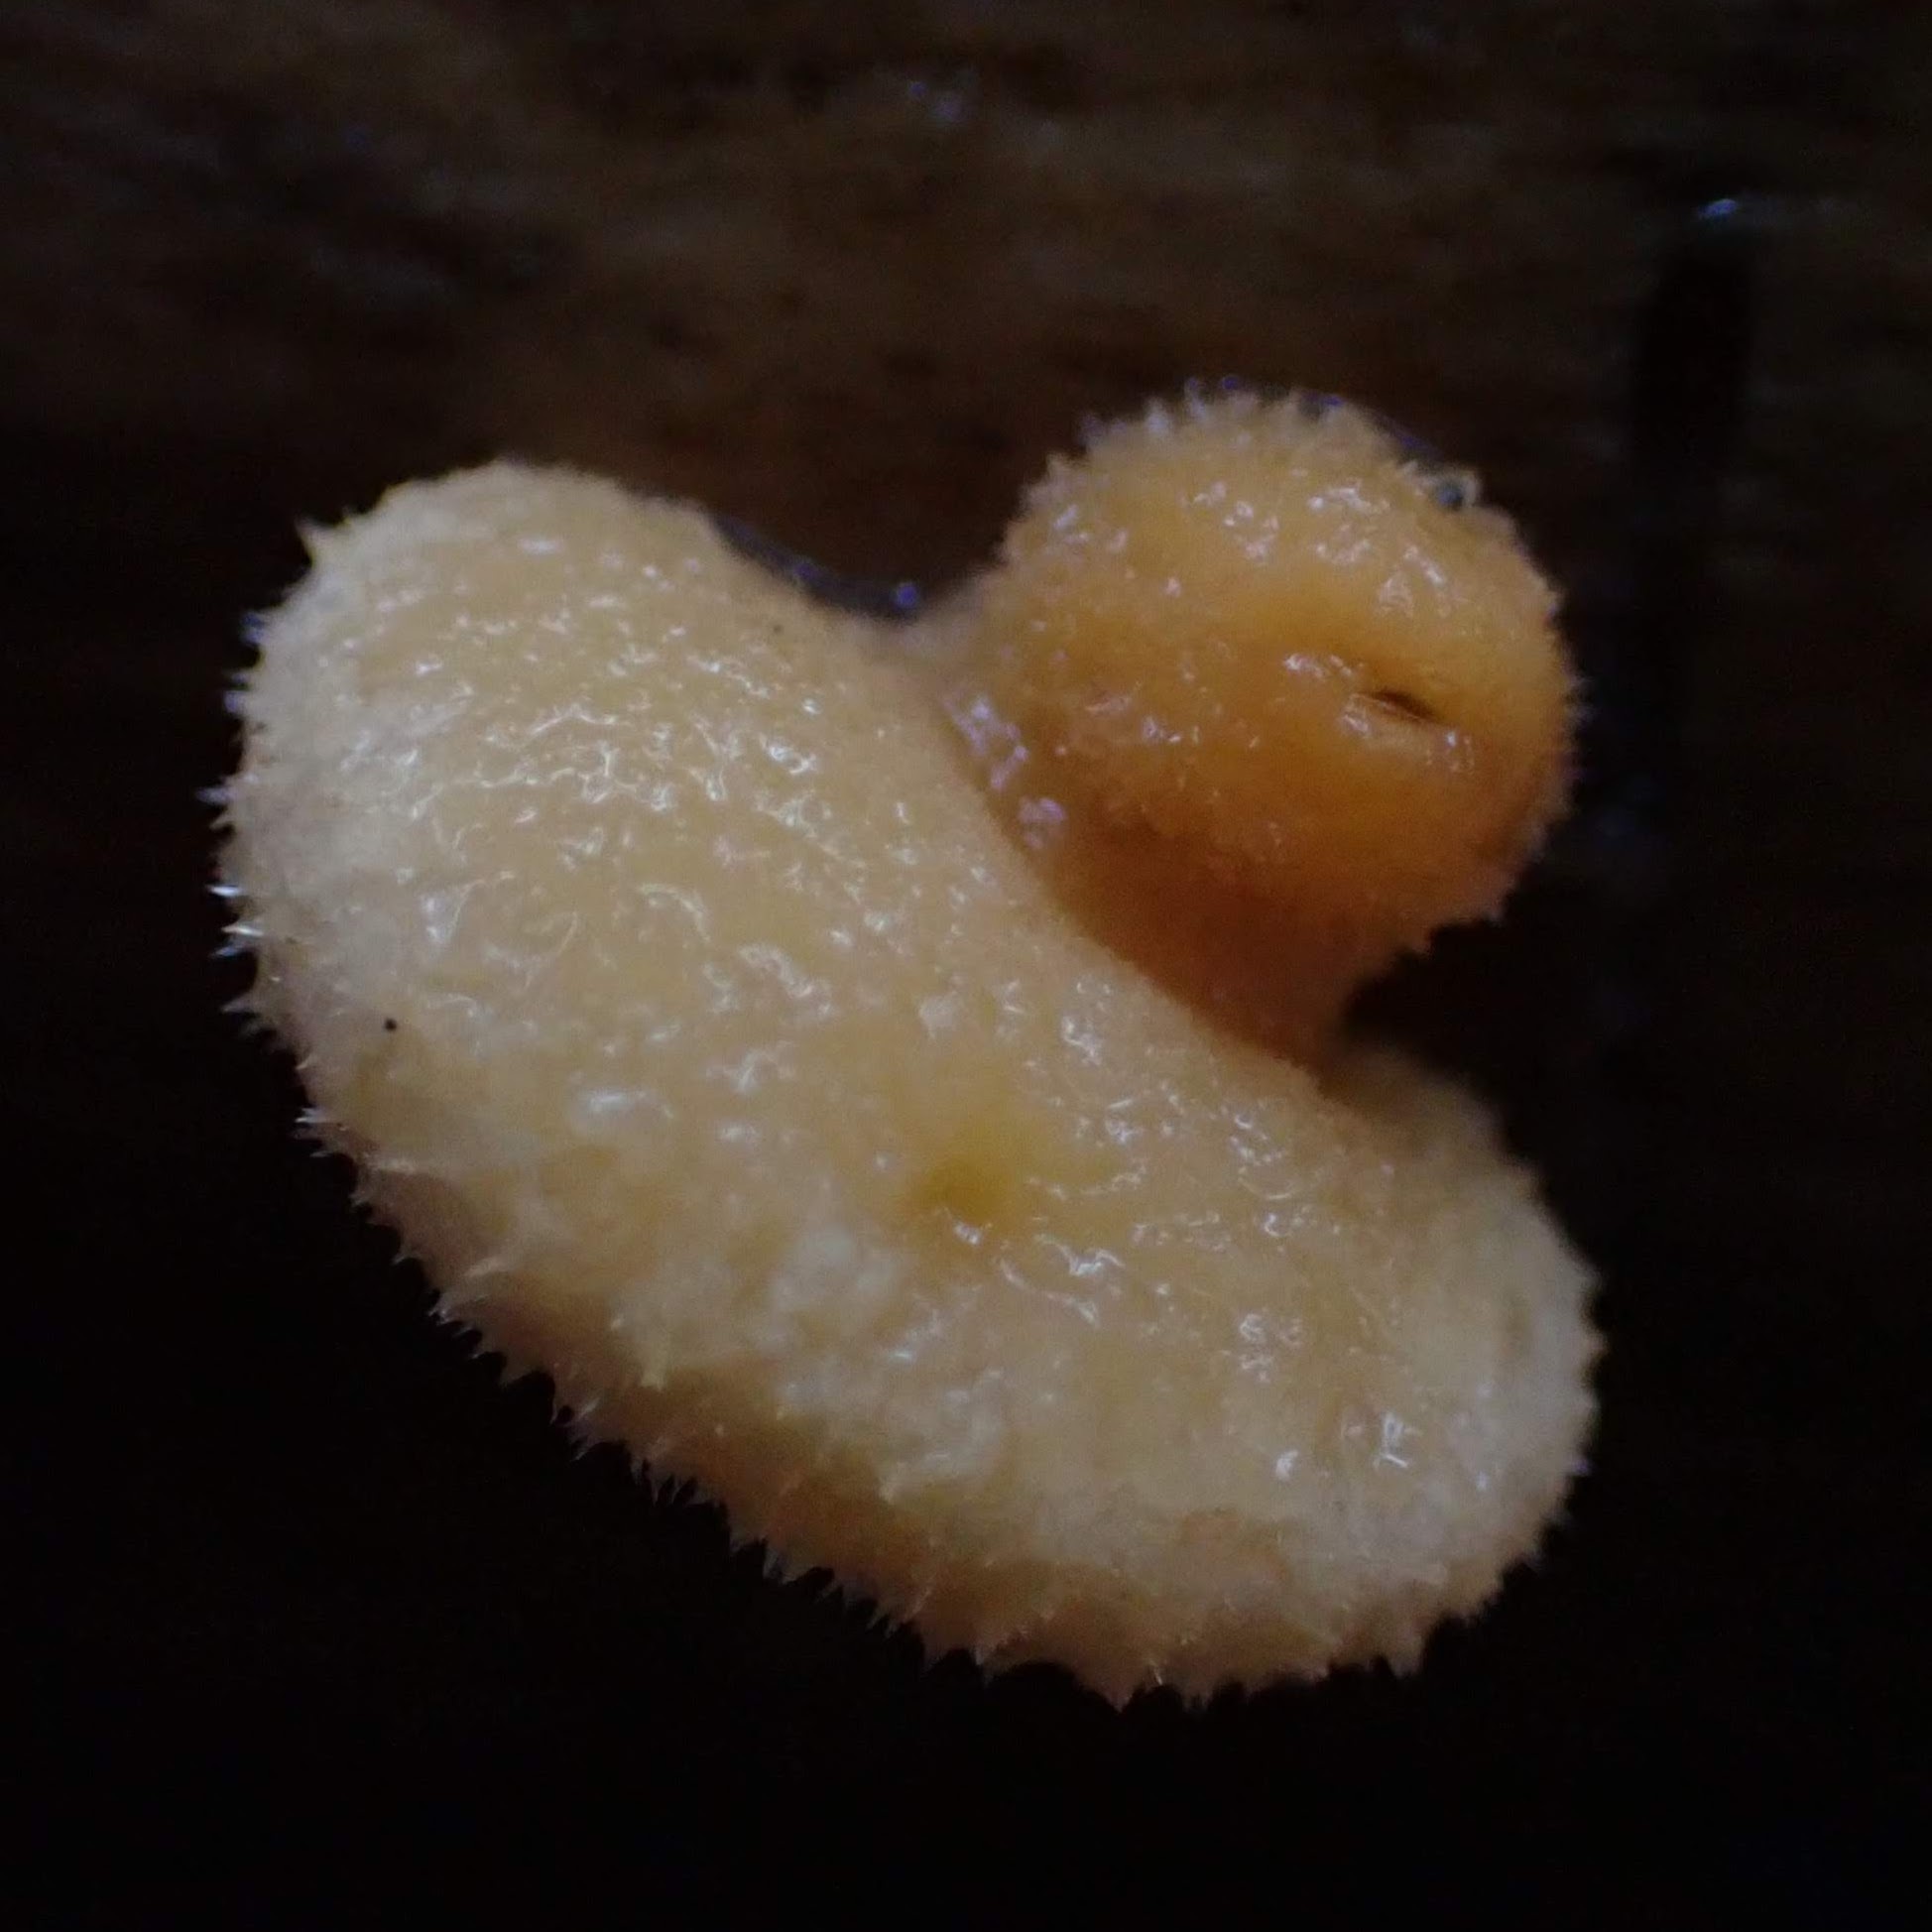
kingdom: Fungi
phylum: Basidiomycota
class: Agaricomycetes
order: Agaricales
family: Phyllotopsidaceae
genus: Phyllotopsis
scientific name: Phyllotopsis nidulans
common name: Orange mock oyster
